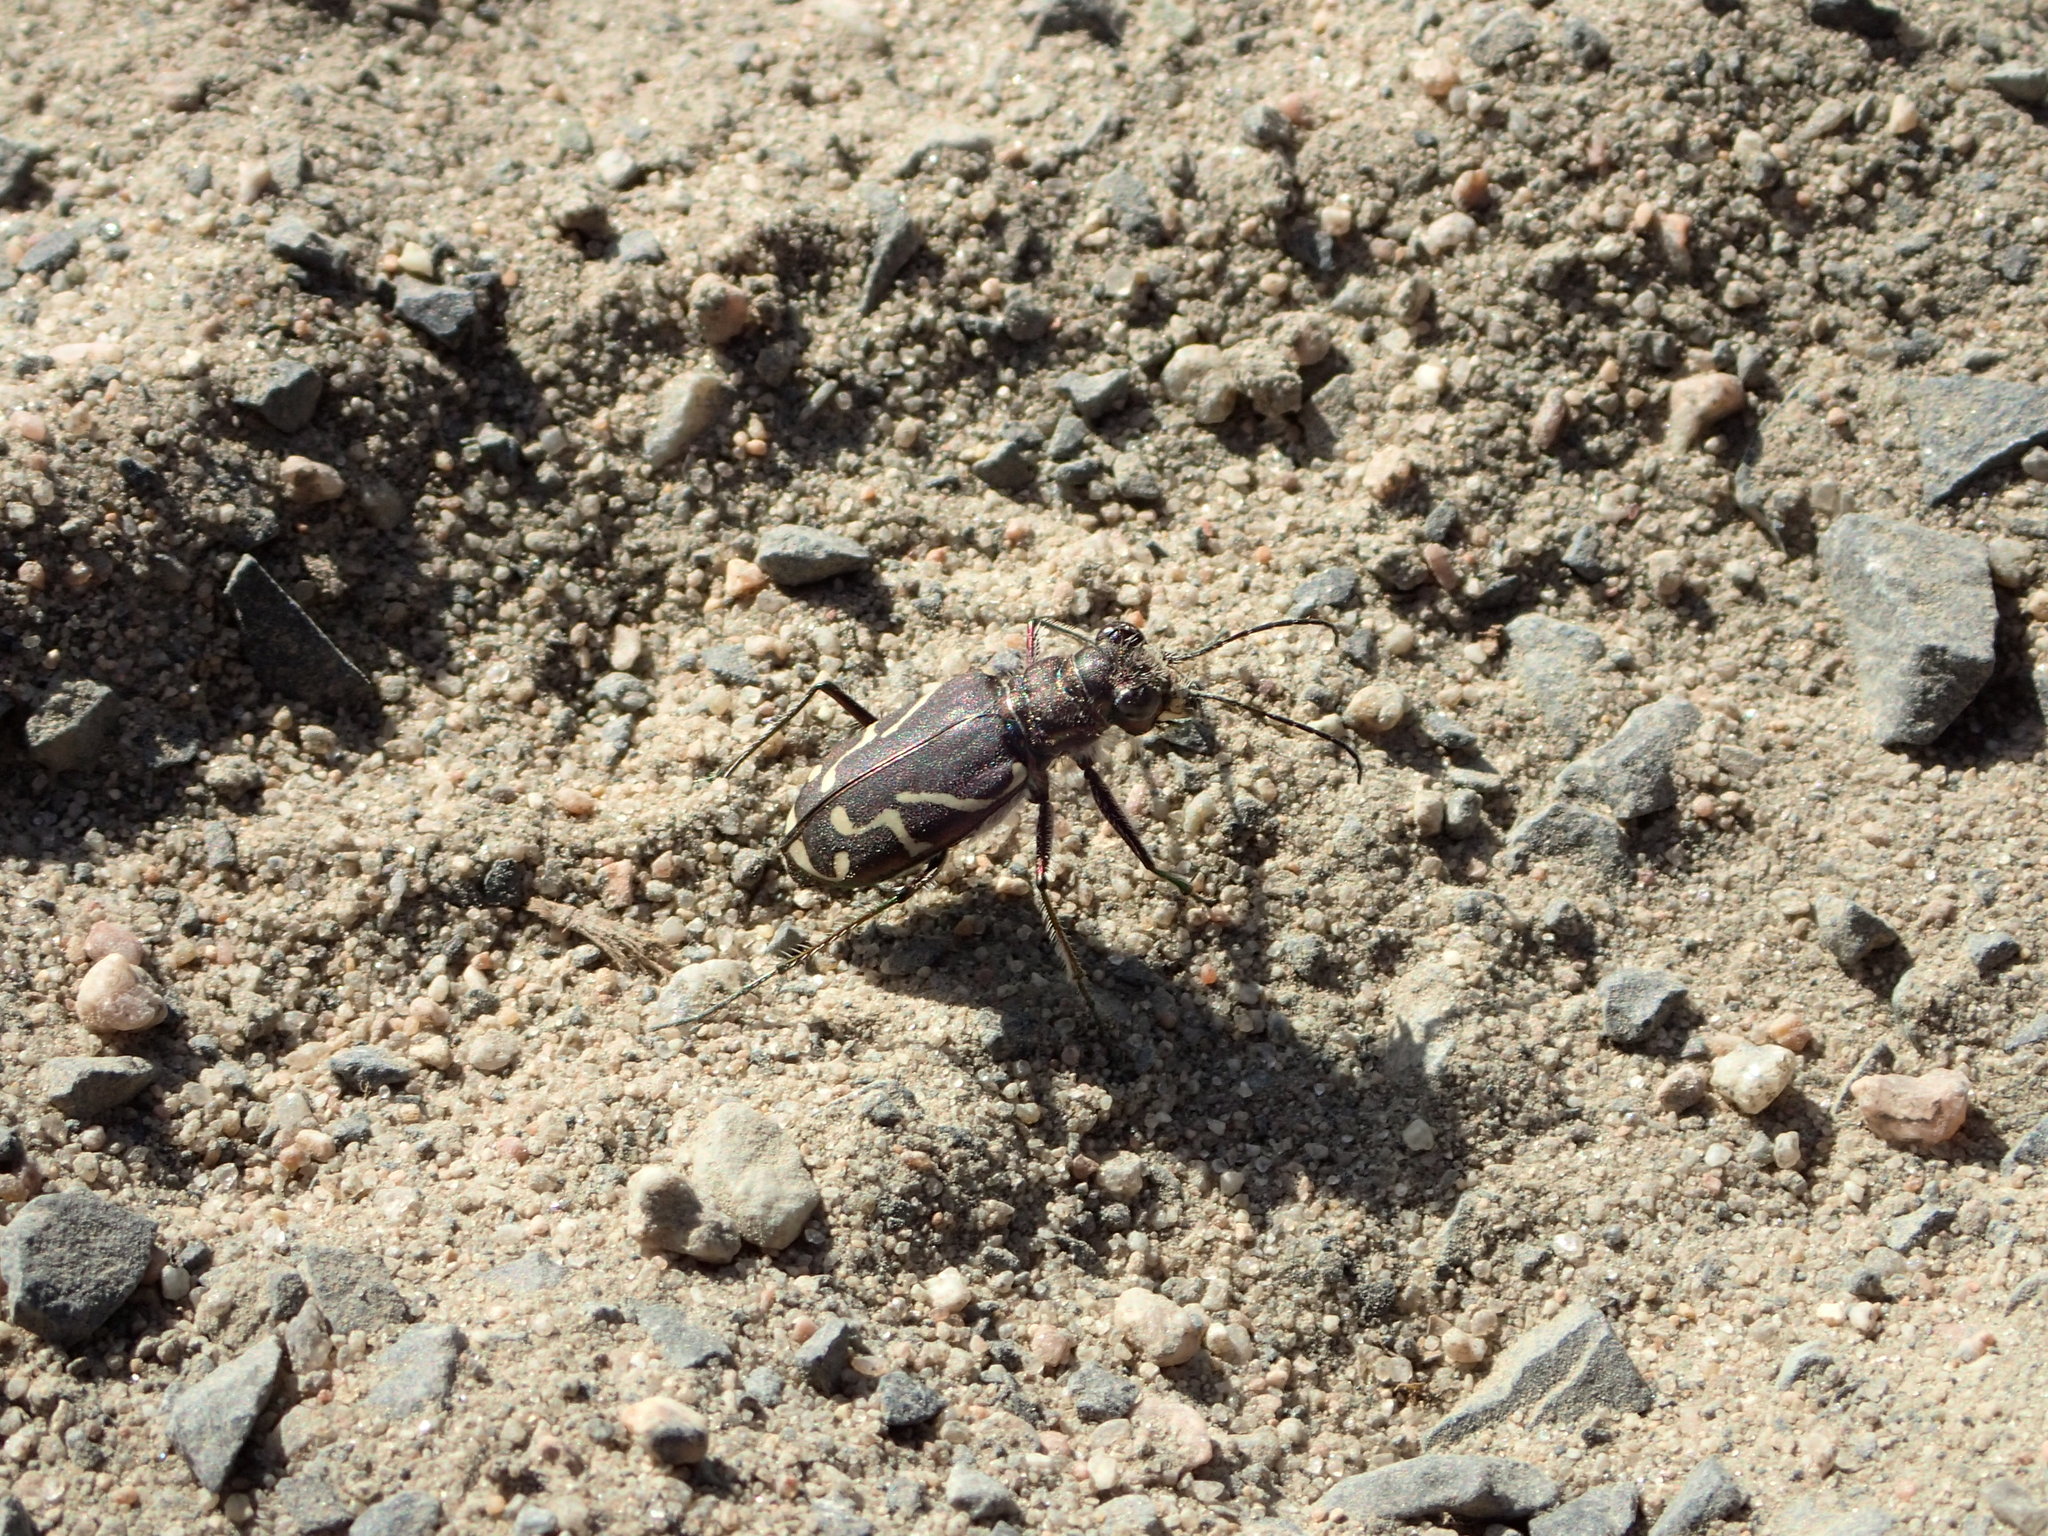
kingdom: Animalia
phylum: Arthropoda
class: Insecta
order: Coleoptera
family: Carabidae
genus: Cicindela
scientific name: Cicindela tranquebarica
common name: Oblique-lined tiger beetle
